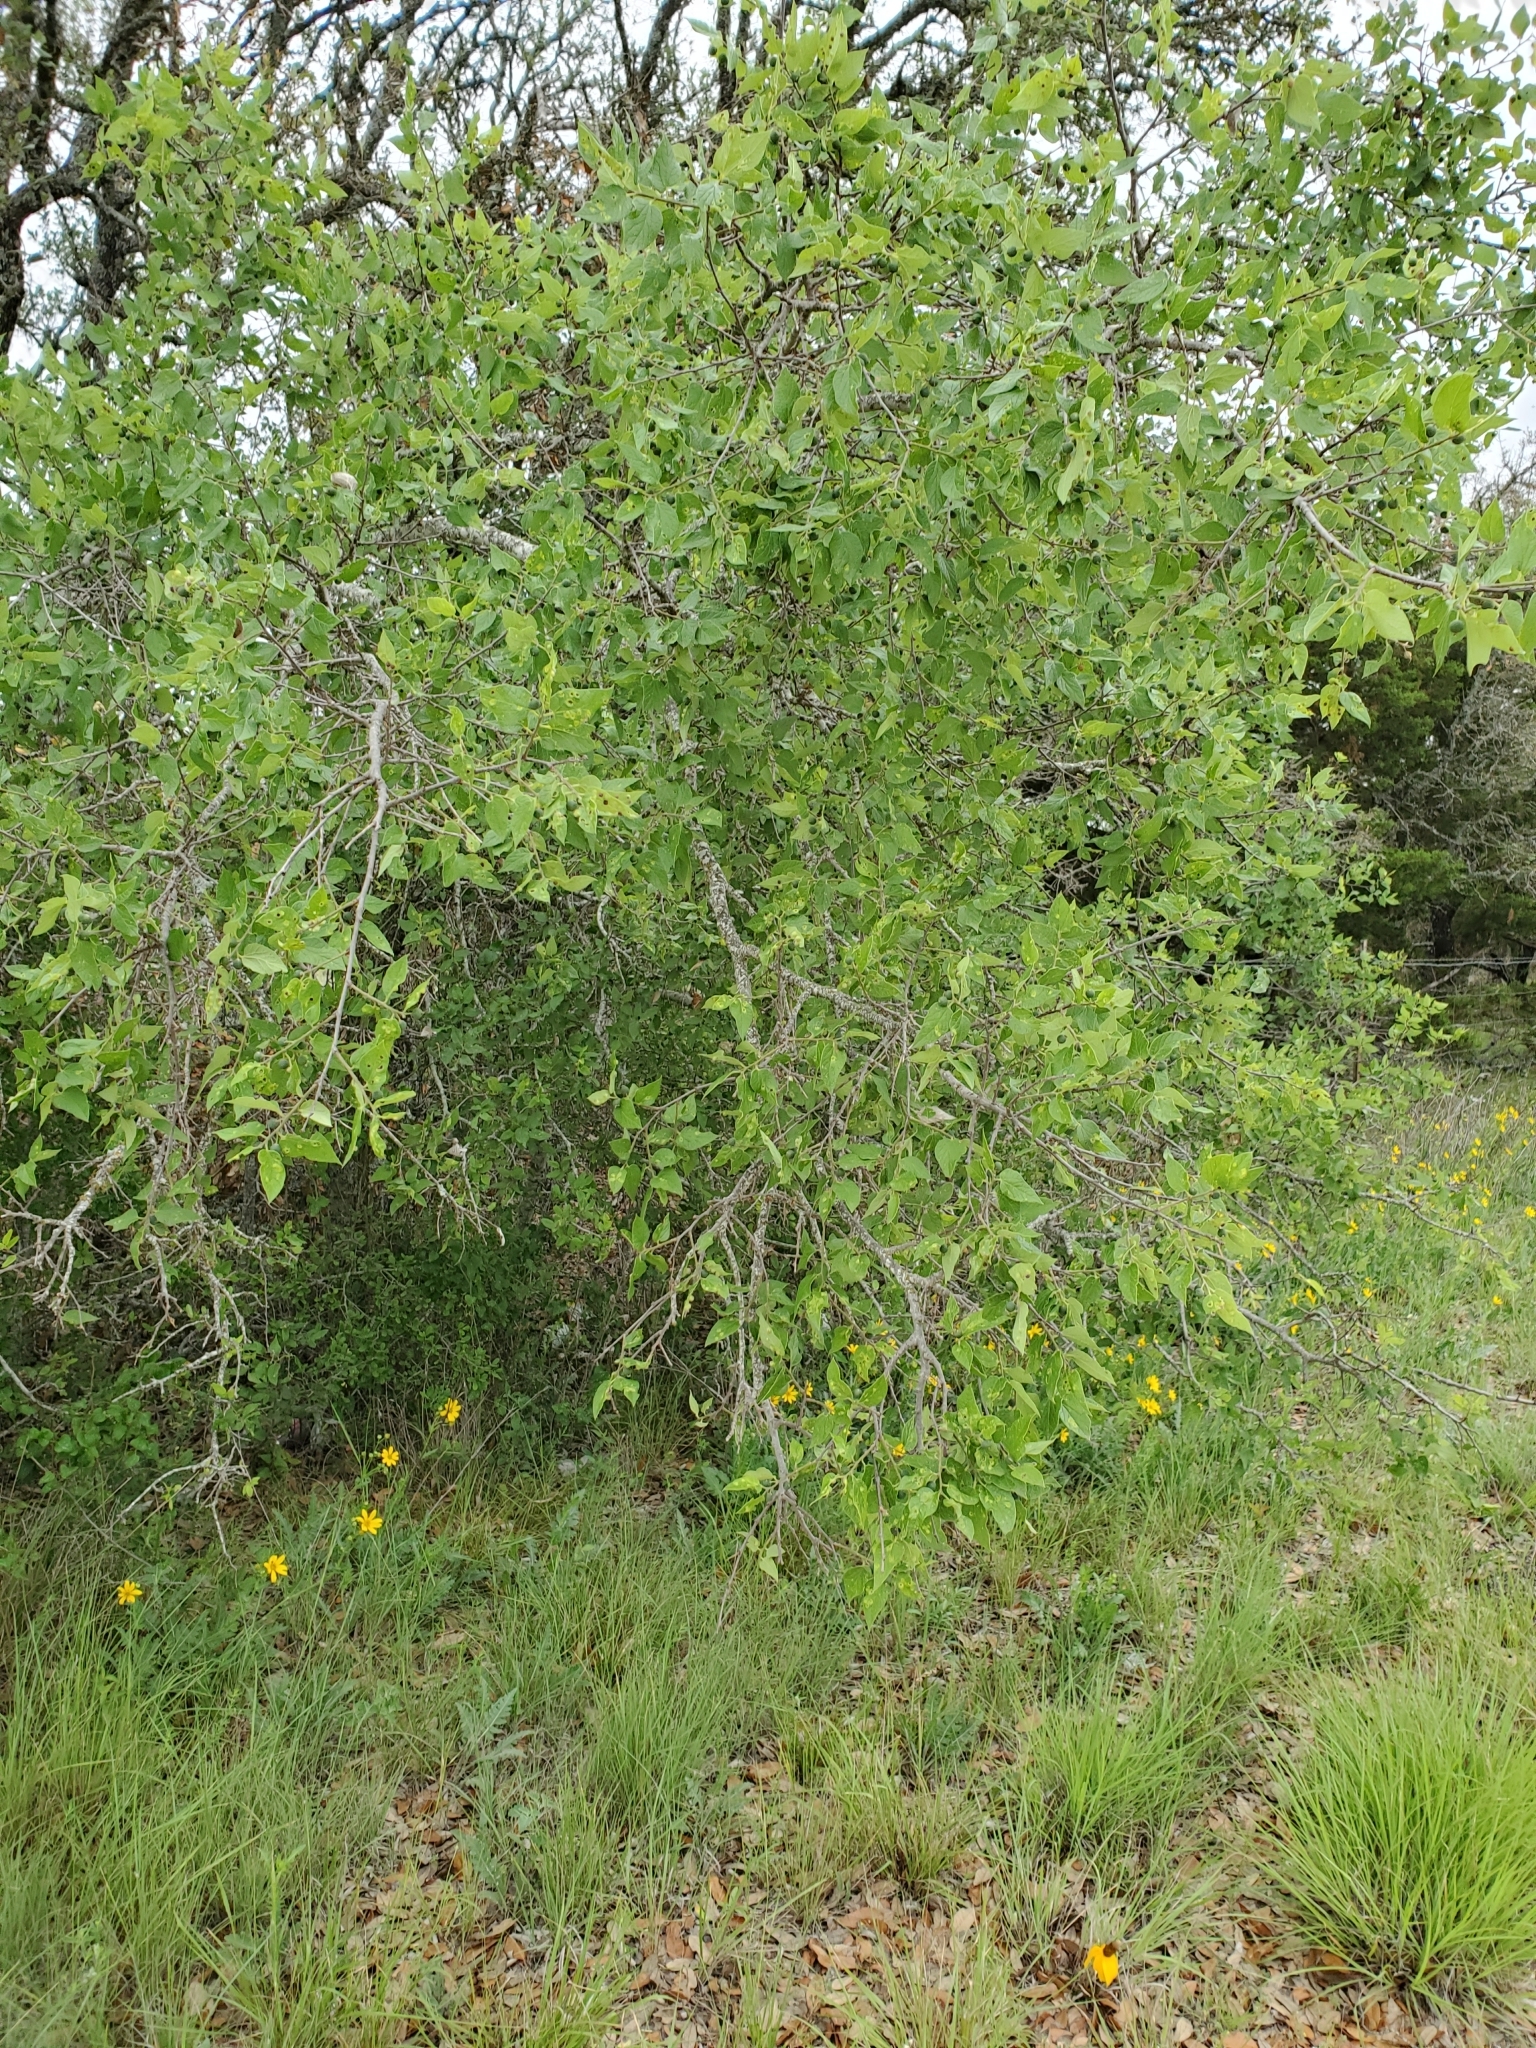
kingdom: Plantae
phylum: Tracheophyta
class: Magnoliopsida
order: Rosales
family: Cannabaceae
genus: Celtis
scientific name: Celtis reticulata
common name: Netleaf hackberry
